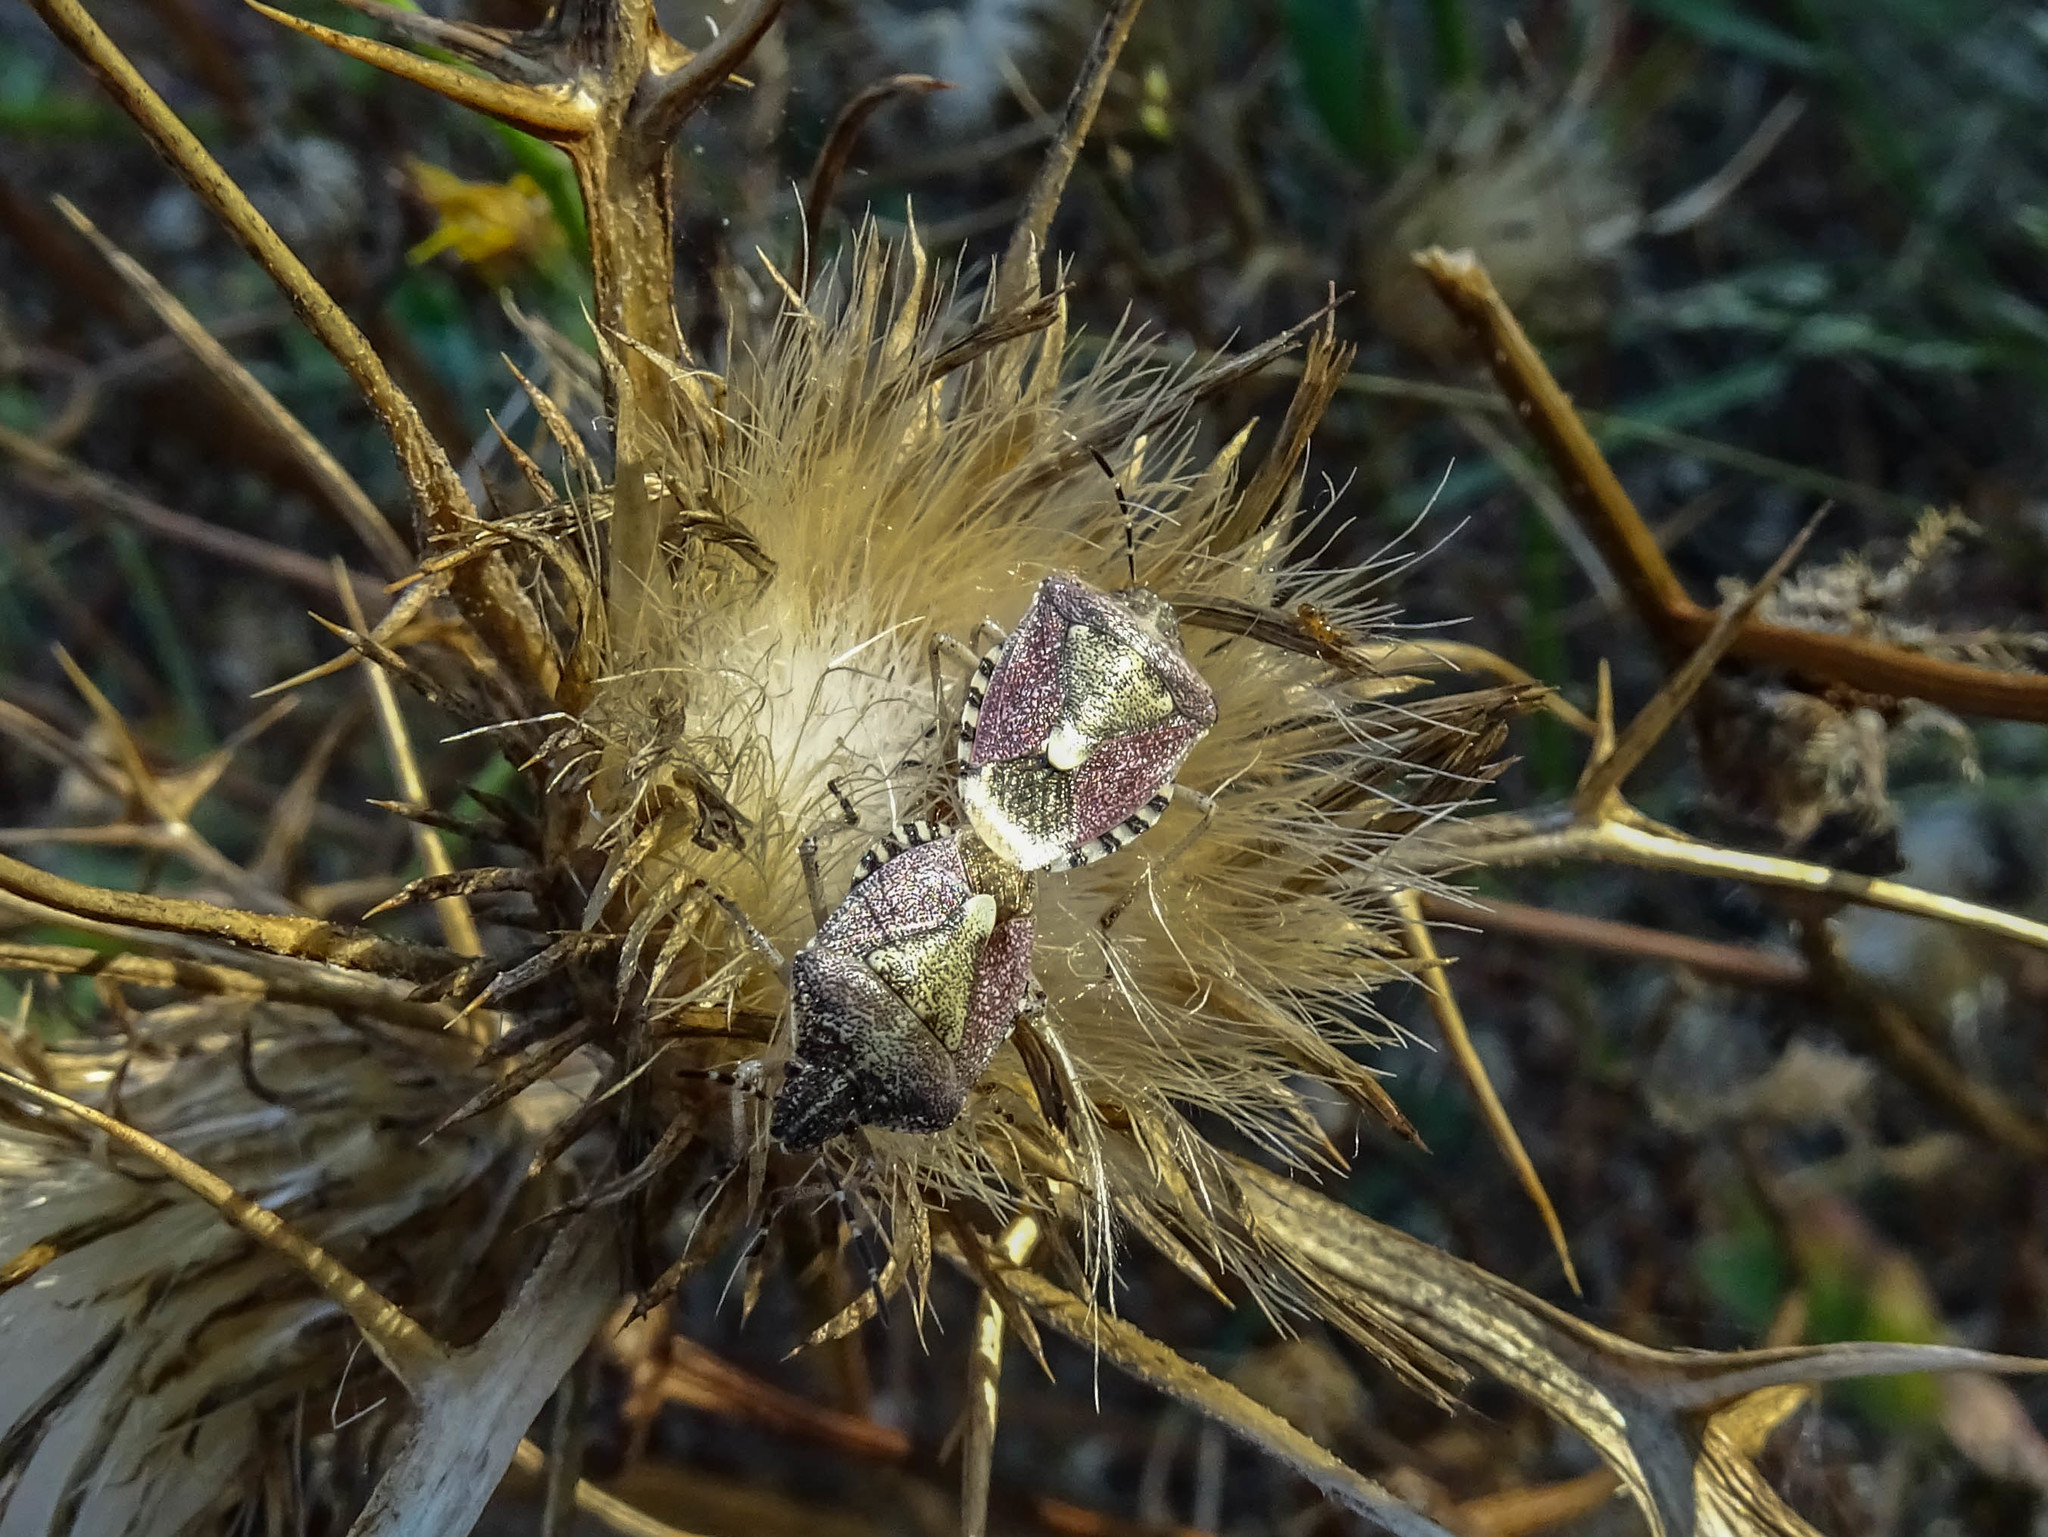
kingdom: Animalia
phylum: Arthropoda
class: Insecta
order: Hemiptera
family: Pentatomidae
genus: Dolycoris
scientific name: Dolycoris baccarum
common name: Sloe bug
